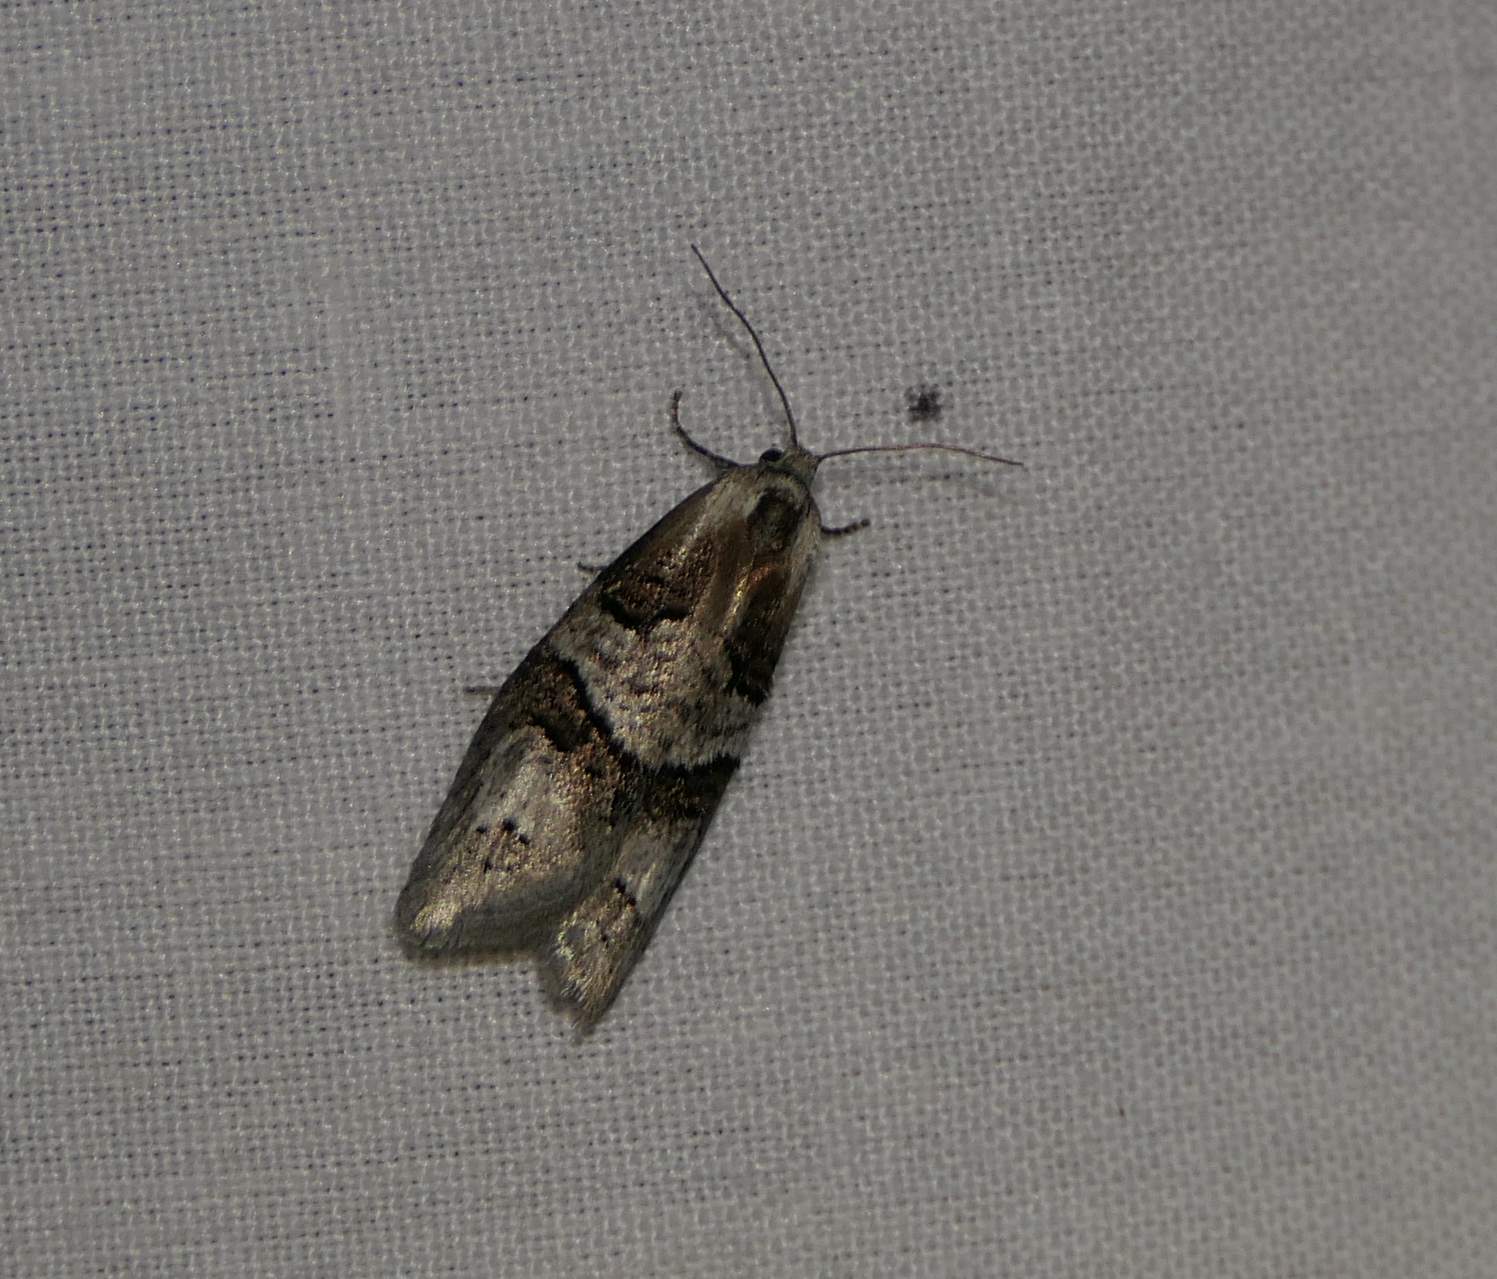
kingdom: Animalia
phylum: Arthropoda
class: Insecta
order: Lepidoptera
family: Tortricidae
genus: Decodes
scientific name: Decodes macdunnoughi
